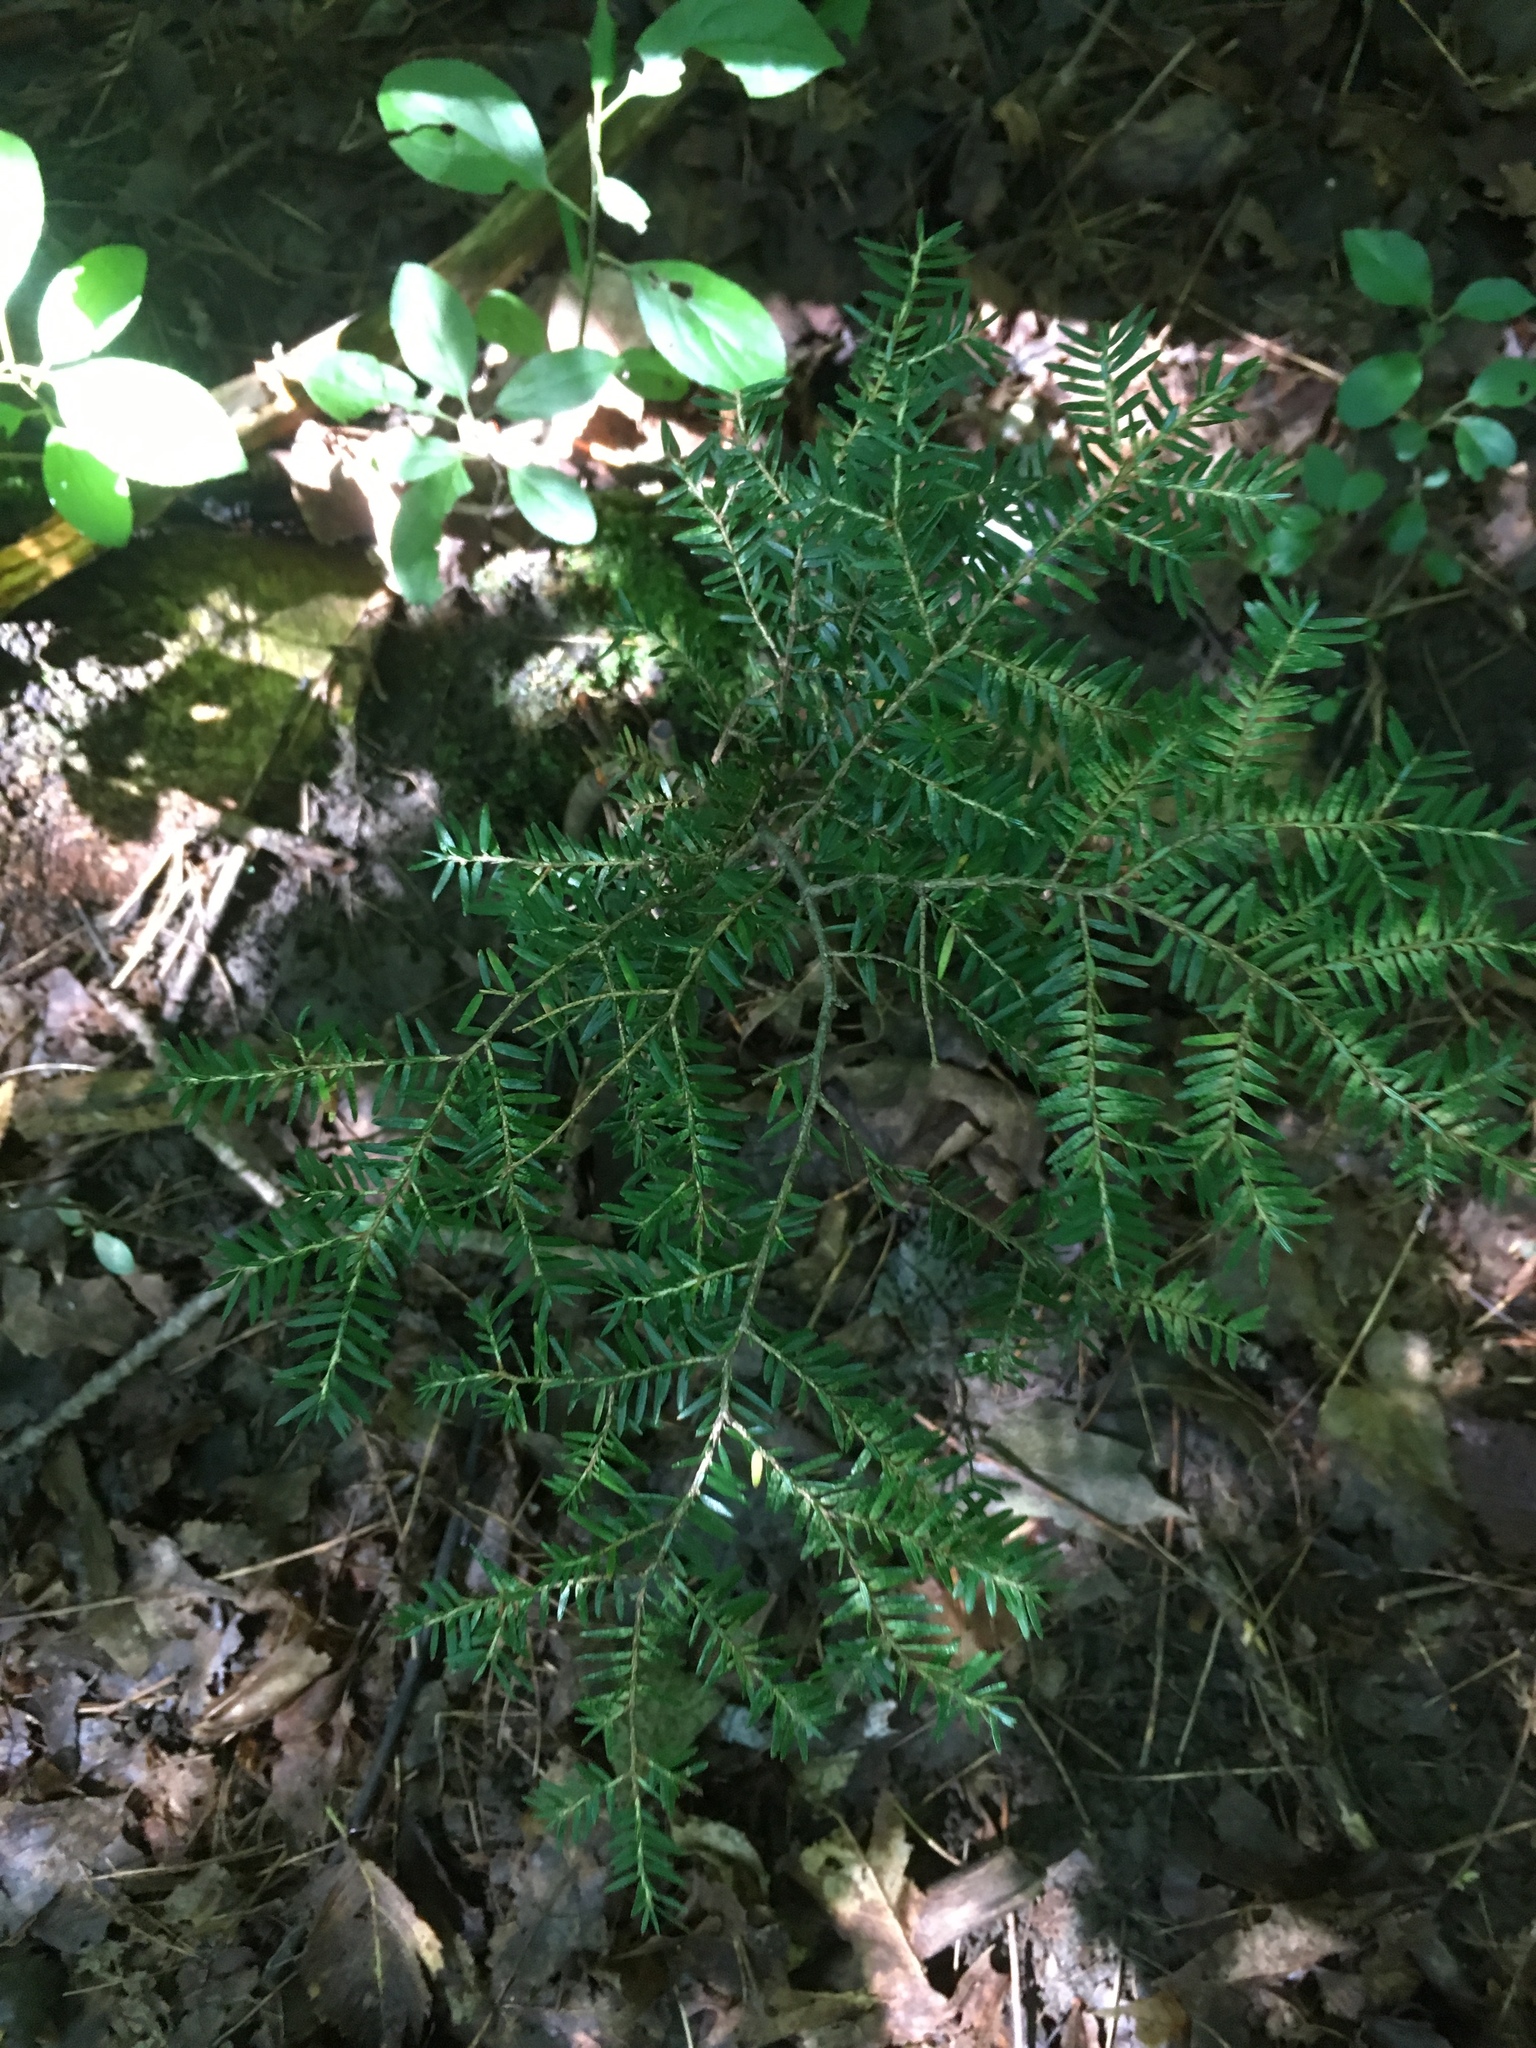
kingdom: Plantae
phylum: Tracheophyta
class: Pinopsida
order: Pinales
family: Pinaceae
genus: Tsuga
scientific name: Tsuga canadensis
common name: Eastern hemlock
